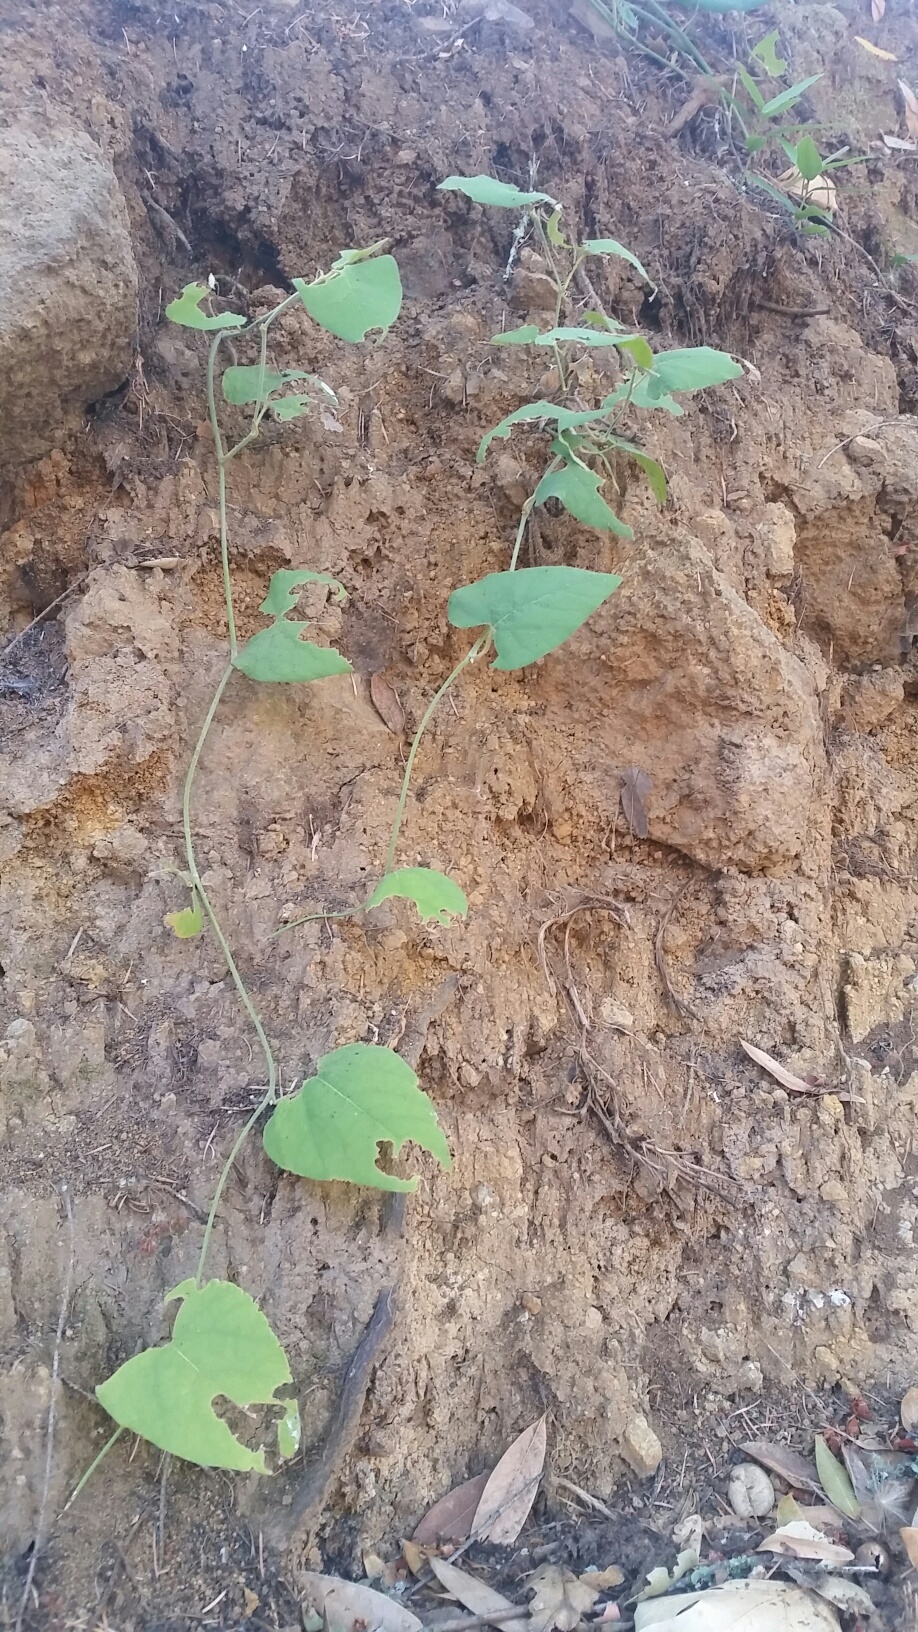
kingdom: Plantae
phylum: Tracheophyta
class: Magnoliopsida
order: Piperales
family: Aristolochiaceae
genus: Isotrema
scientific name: Isotrema californicum
